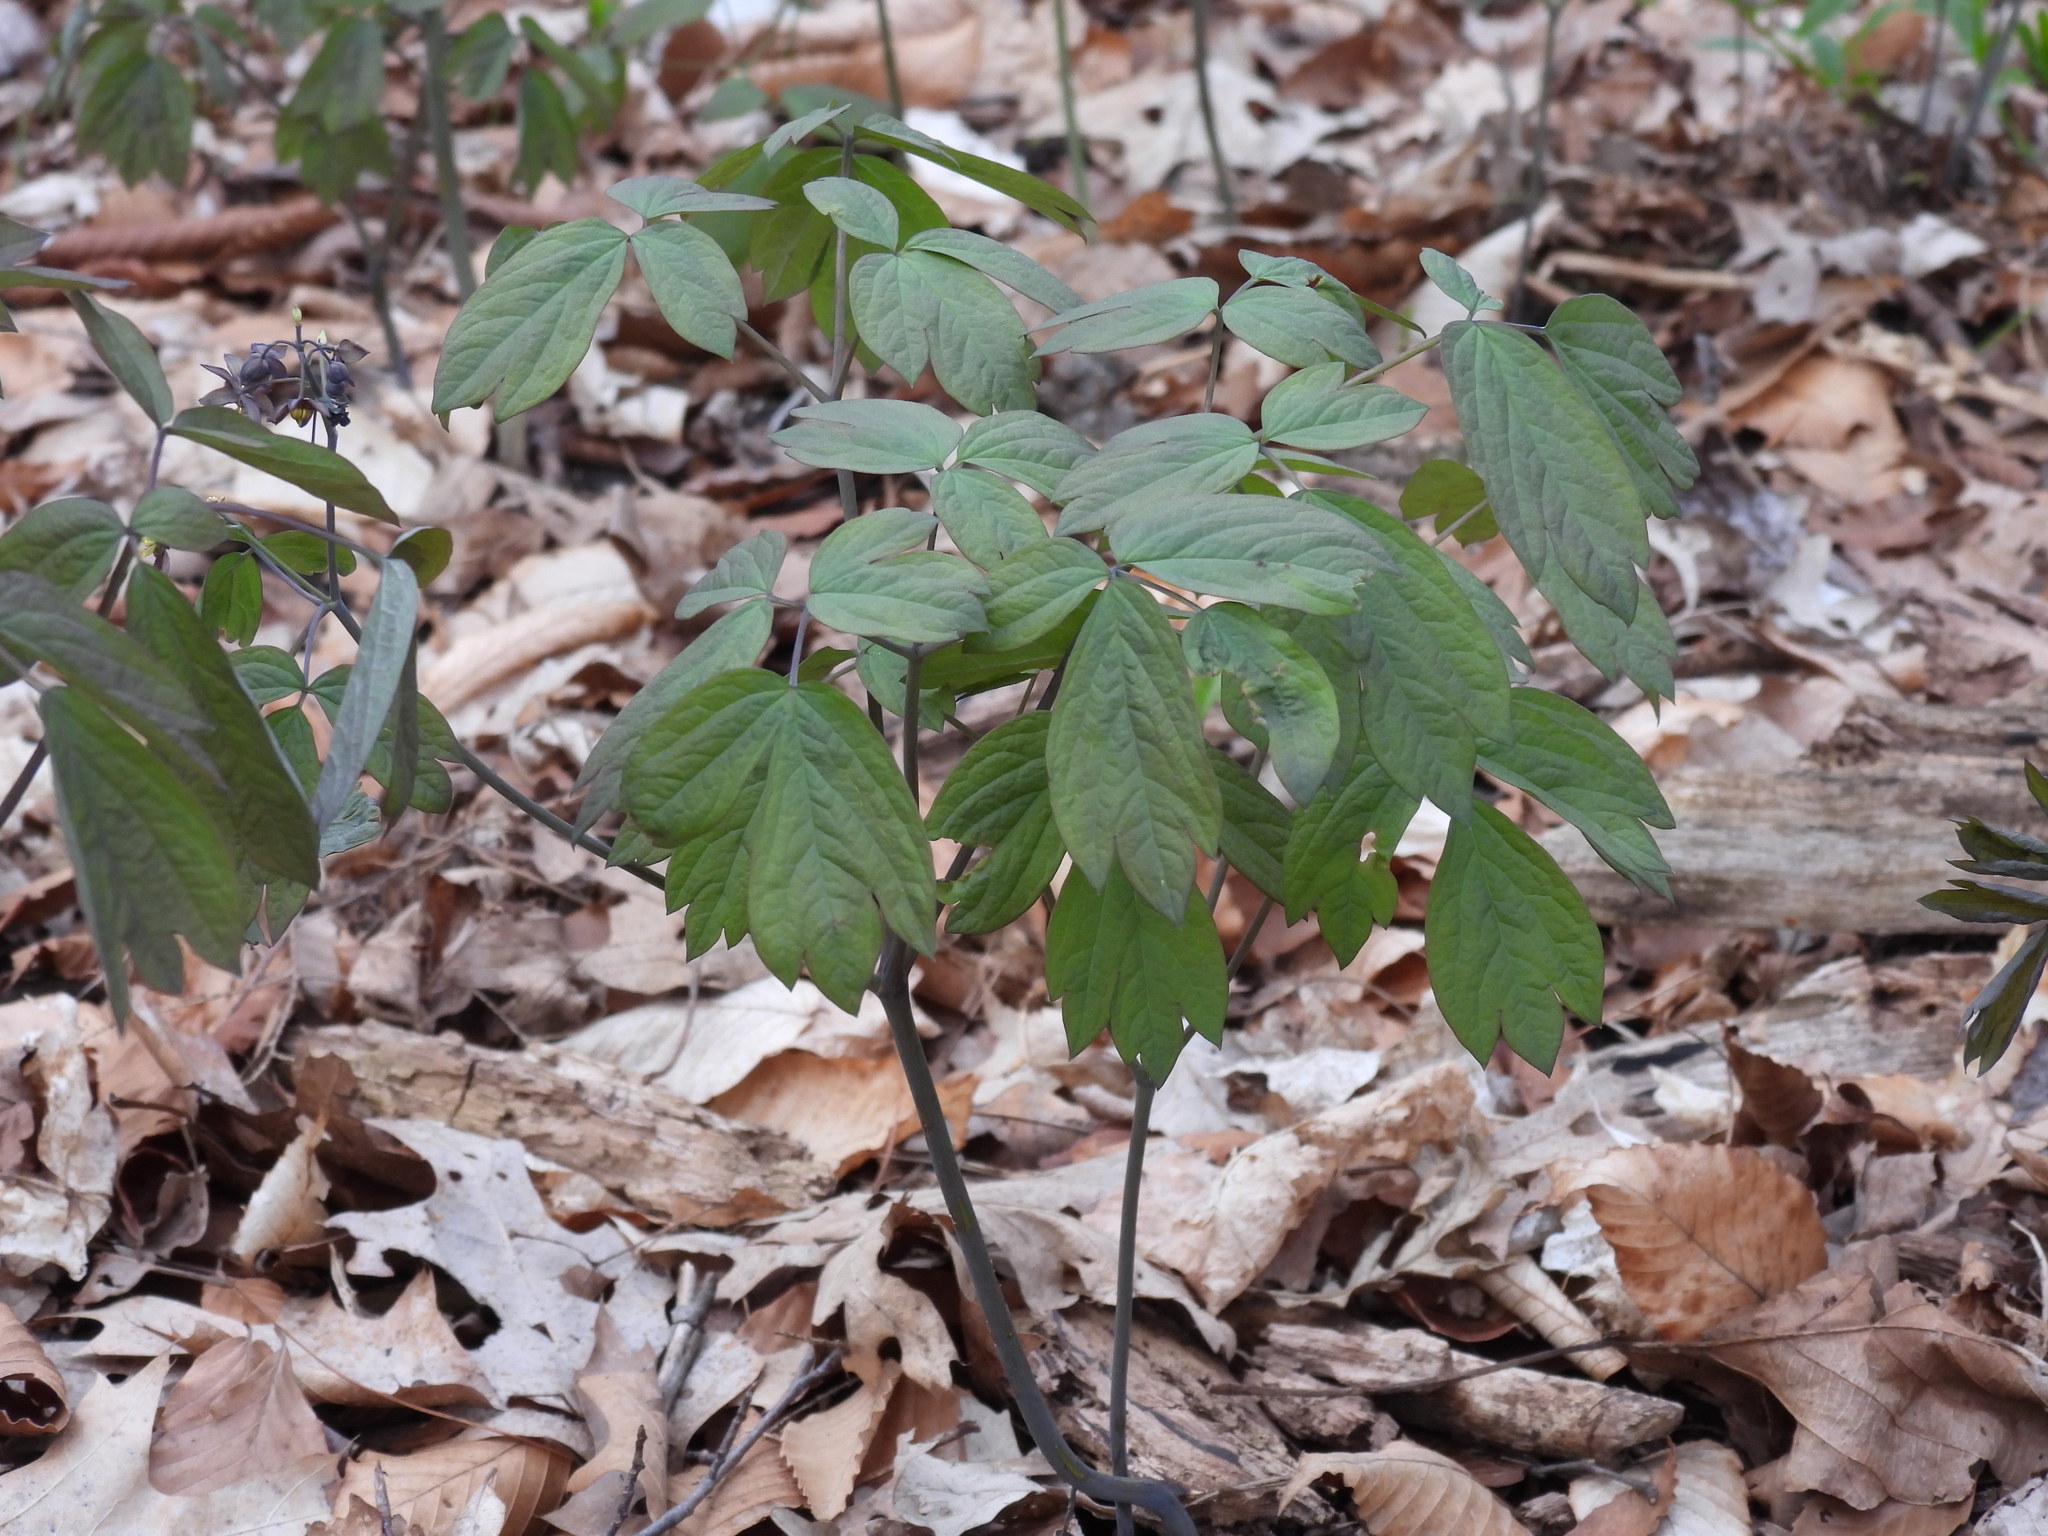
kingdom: Plantae
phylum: Tracheophyta
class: Magnoliopsida
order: Ranunculales
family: Berberidaceae
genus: Caulophyllum
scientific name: Caulophyllum giganteum
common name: Blue cohosh
